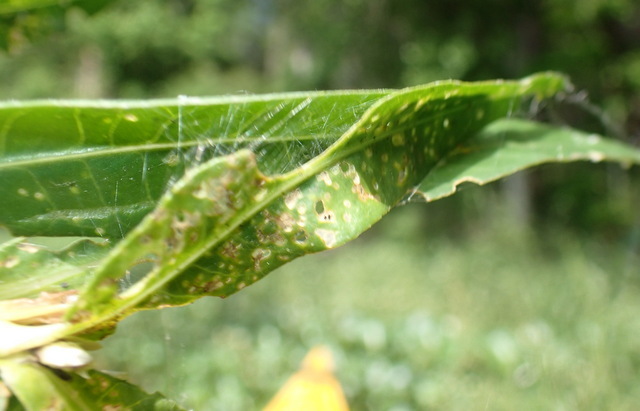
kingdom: Animalia
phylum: Arthropoda
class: Arachnida
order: Araneae
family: Araneidae
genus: Larinioides
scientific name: Larinioides cornutus
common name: Furrow orbweaver
